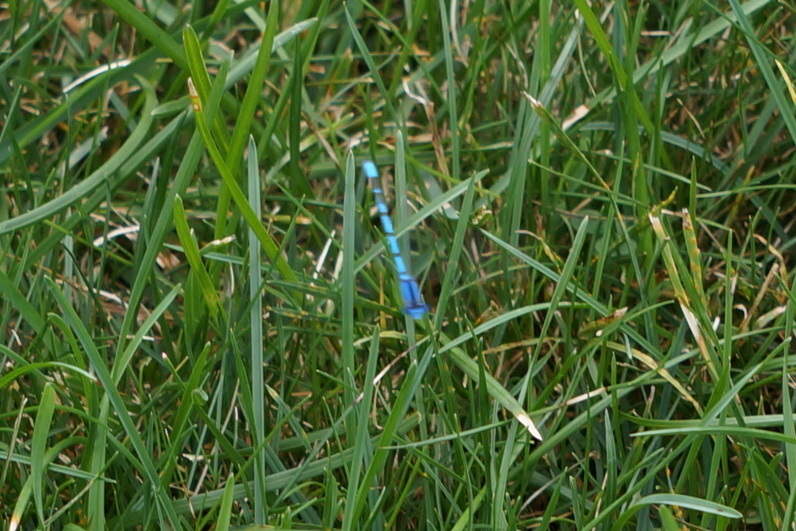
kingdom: Animalia
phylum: Arthropoda
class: Insecta
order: Odonata
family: Coenagrionidae
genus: Enallagma
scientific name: Enallagma civile
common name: Damselfly
